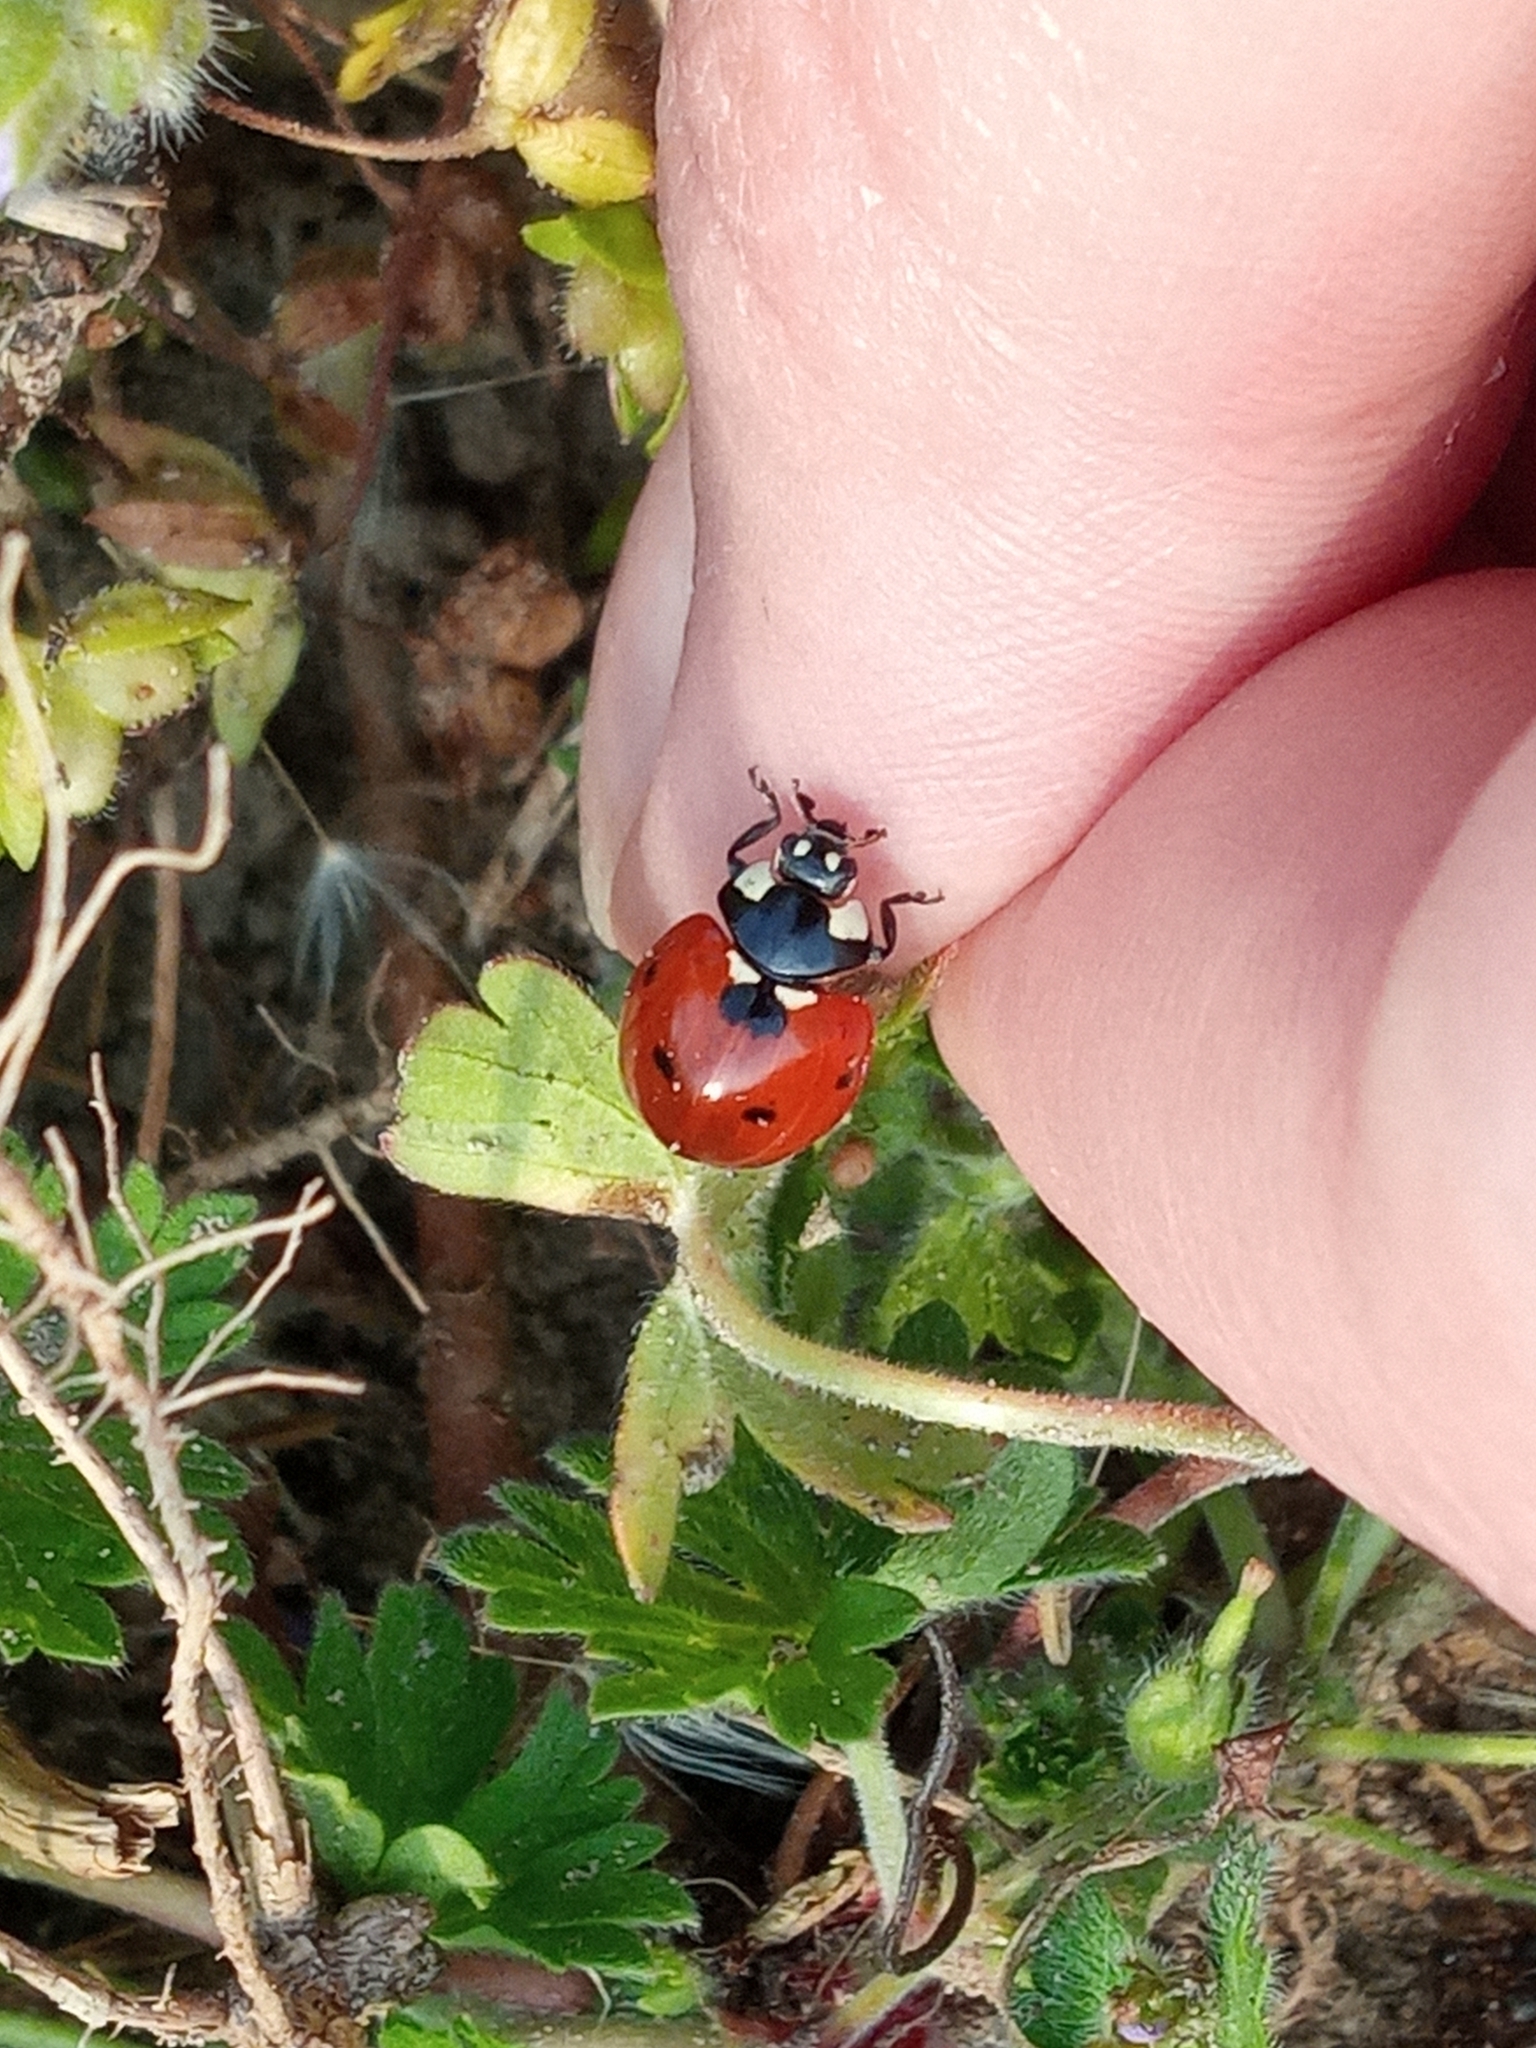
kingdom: Animalia
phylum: Arthropoda
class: Insecta
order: Coleoptera
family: Coccinellidae
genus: Coccinella
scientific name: Coccinella septempunctata
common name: Sevenspotted lady beetle
